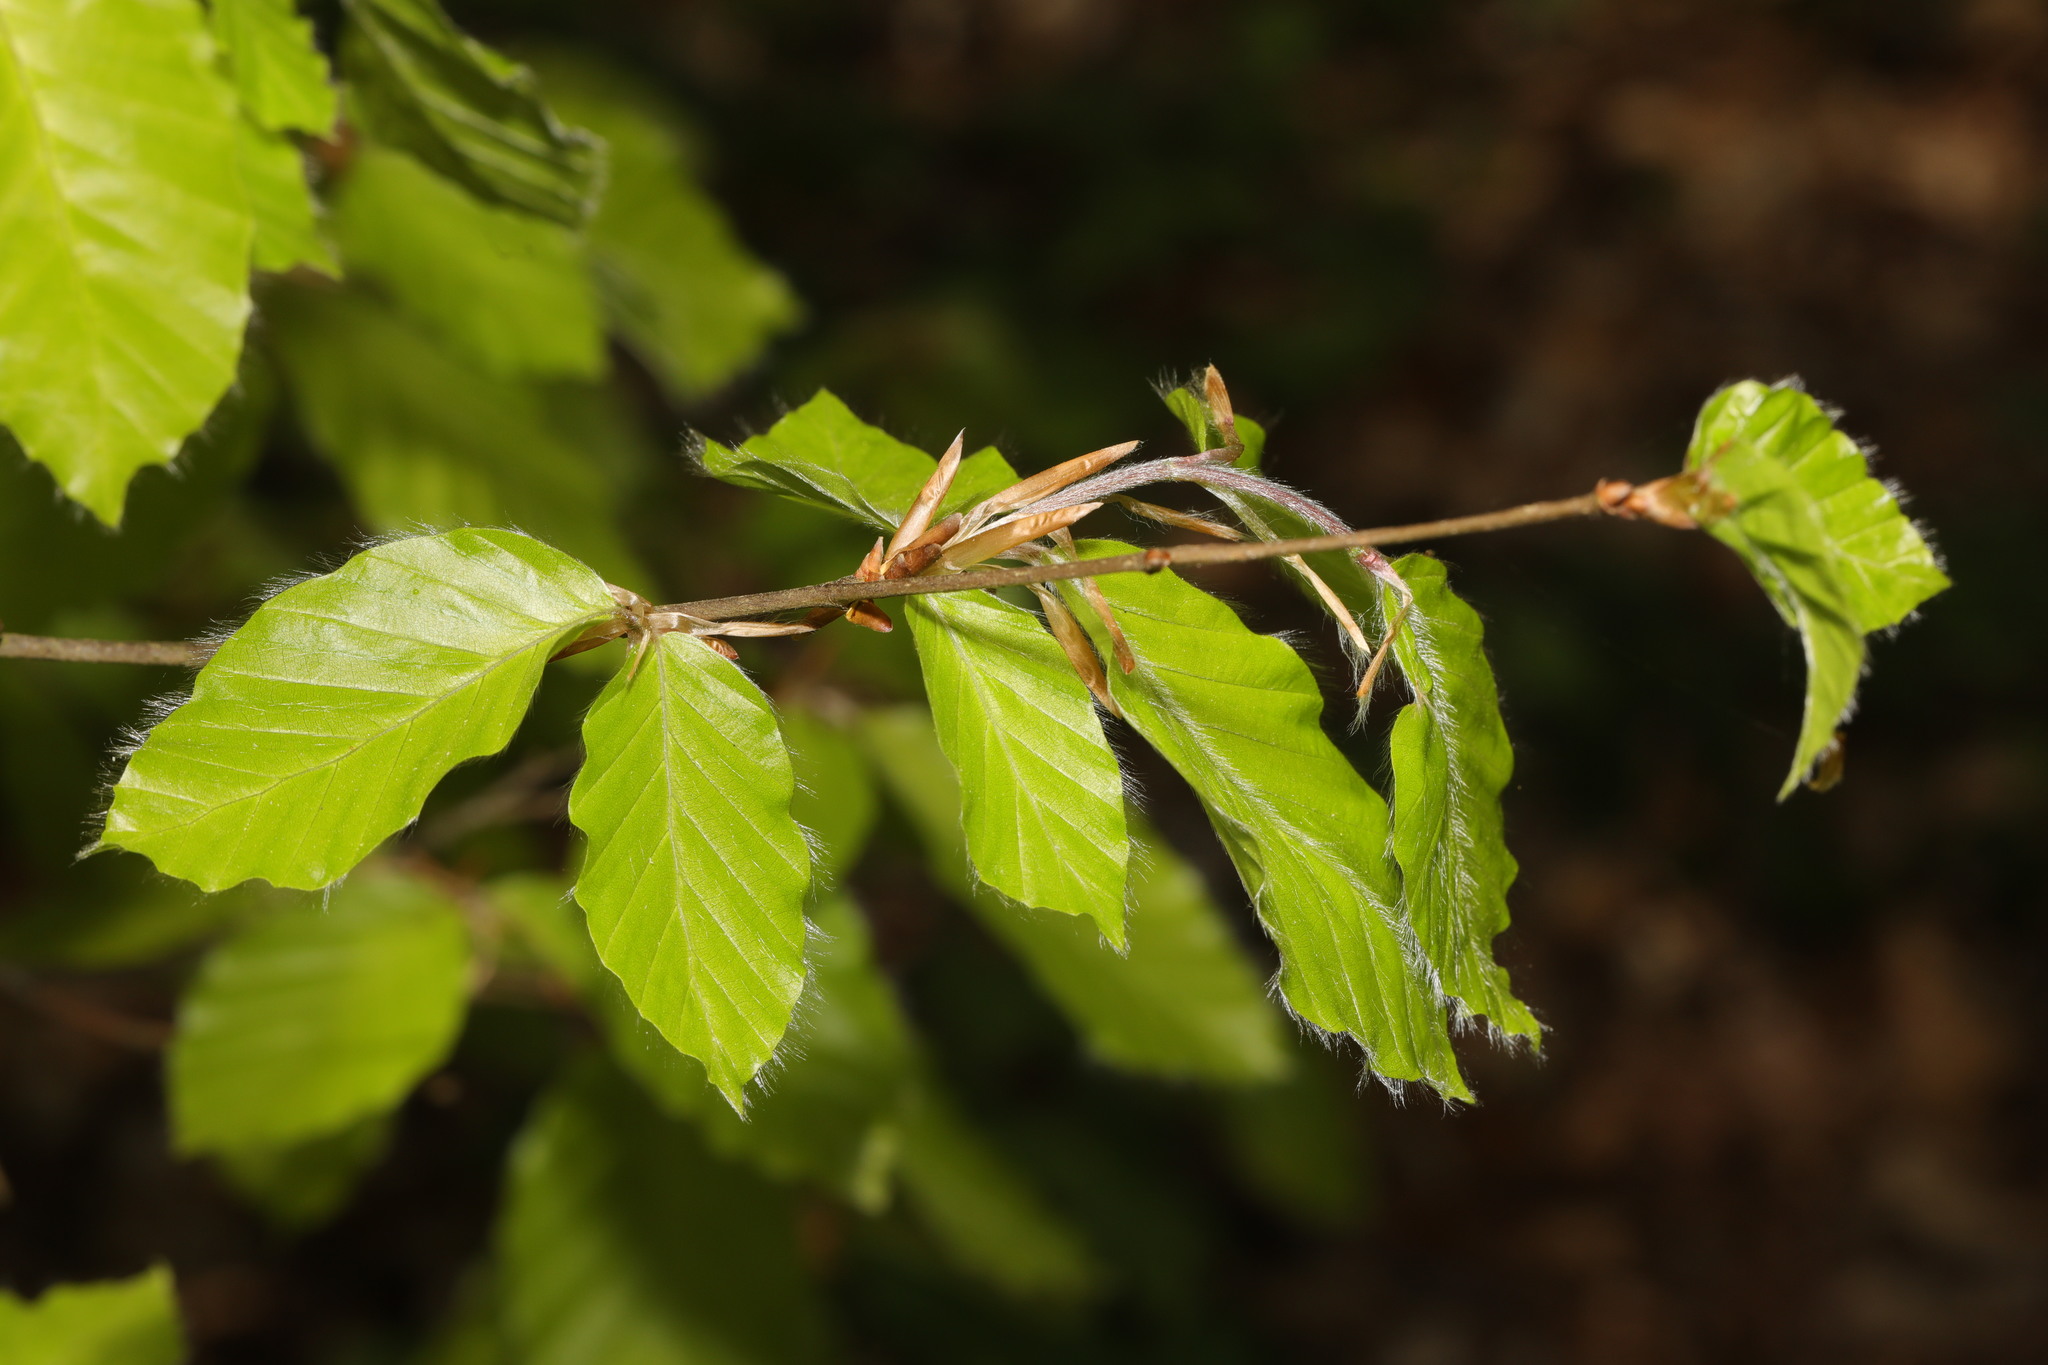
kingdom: Plantae
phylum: Tracheophyta
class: Magnoliopsida
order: Fagales
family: Fagaceae
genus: Fagus
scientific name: Fagus sylvatica
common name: Beech
